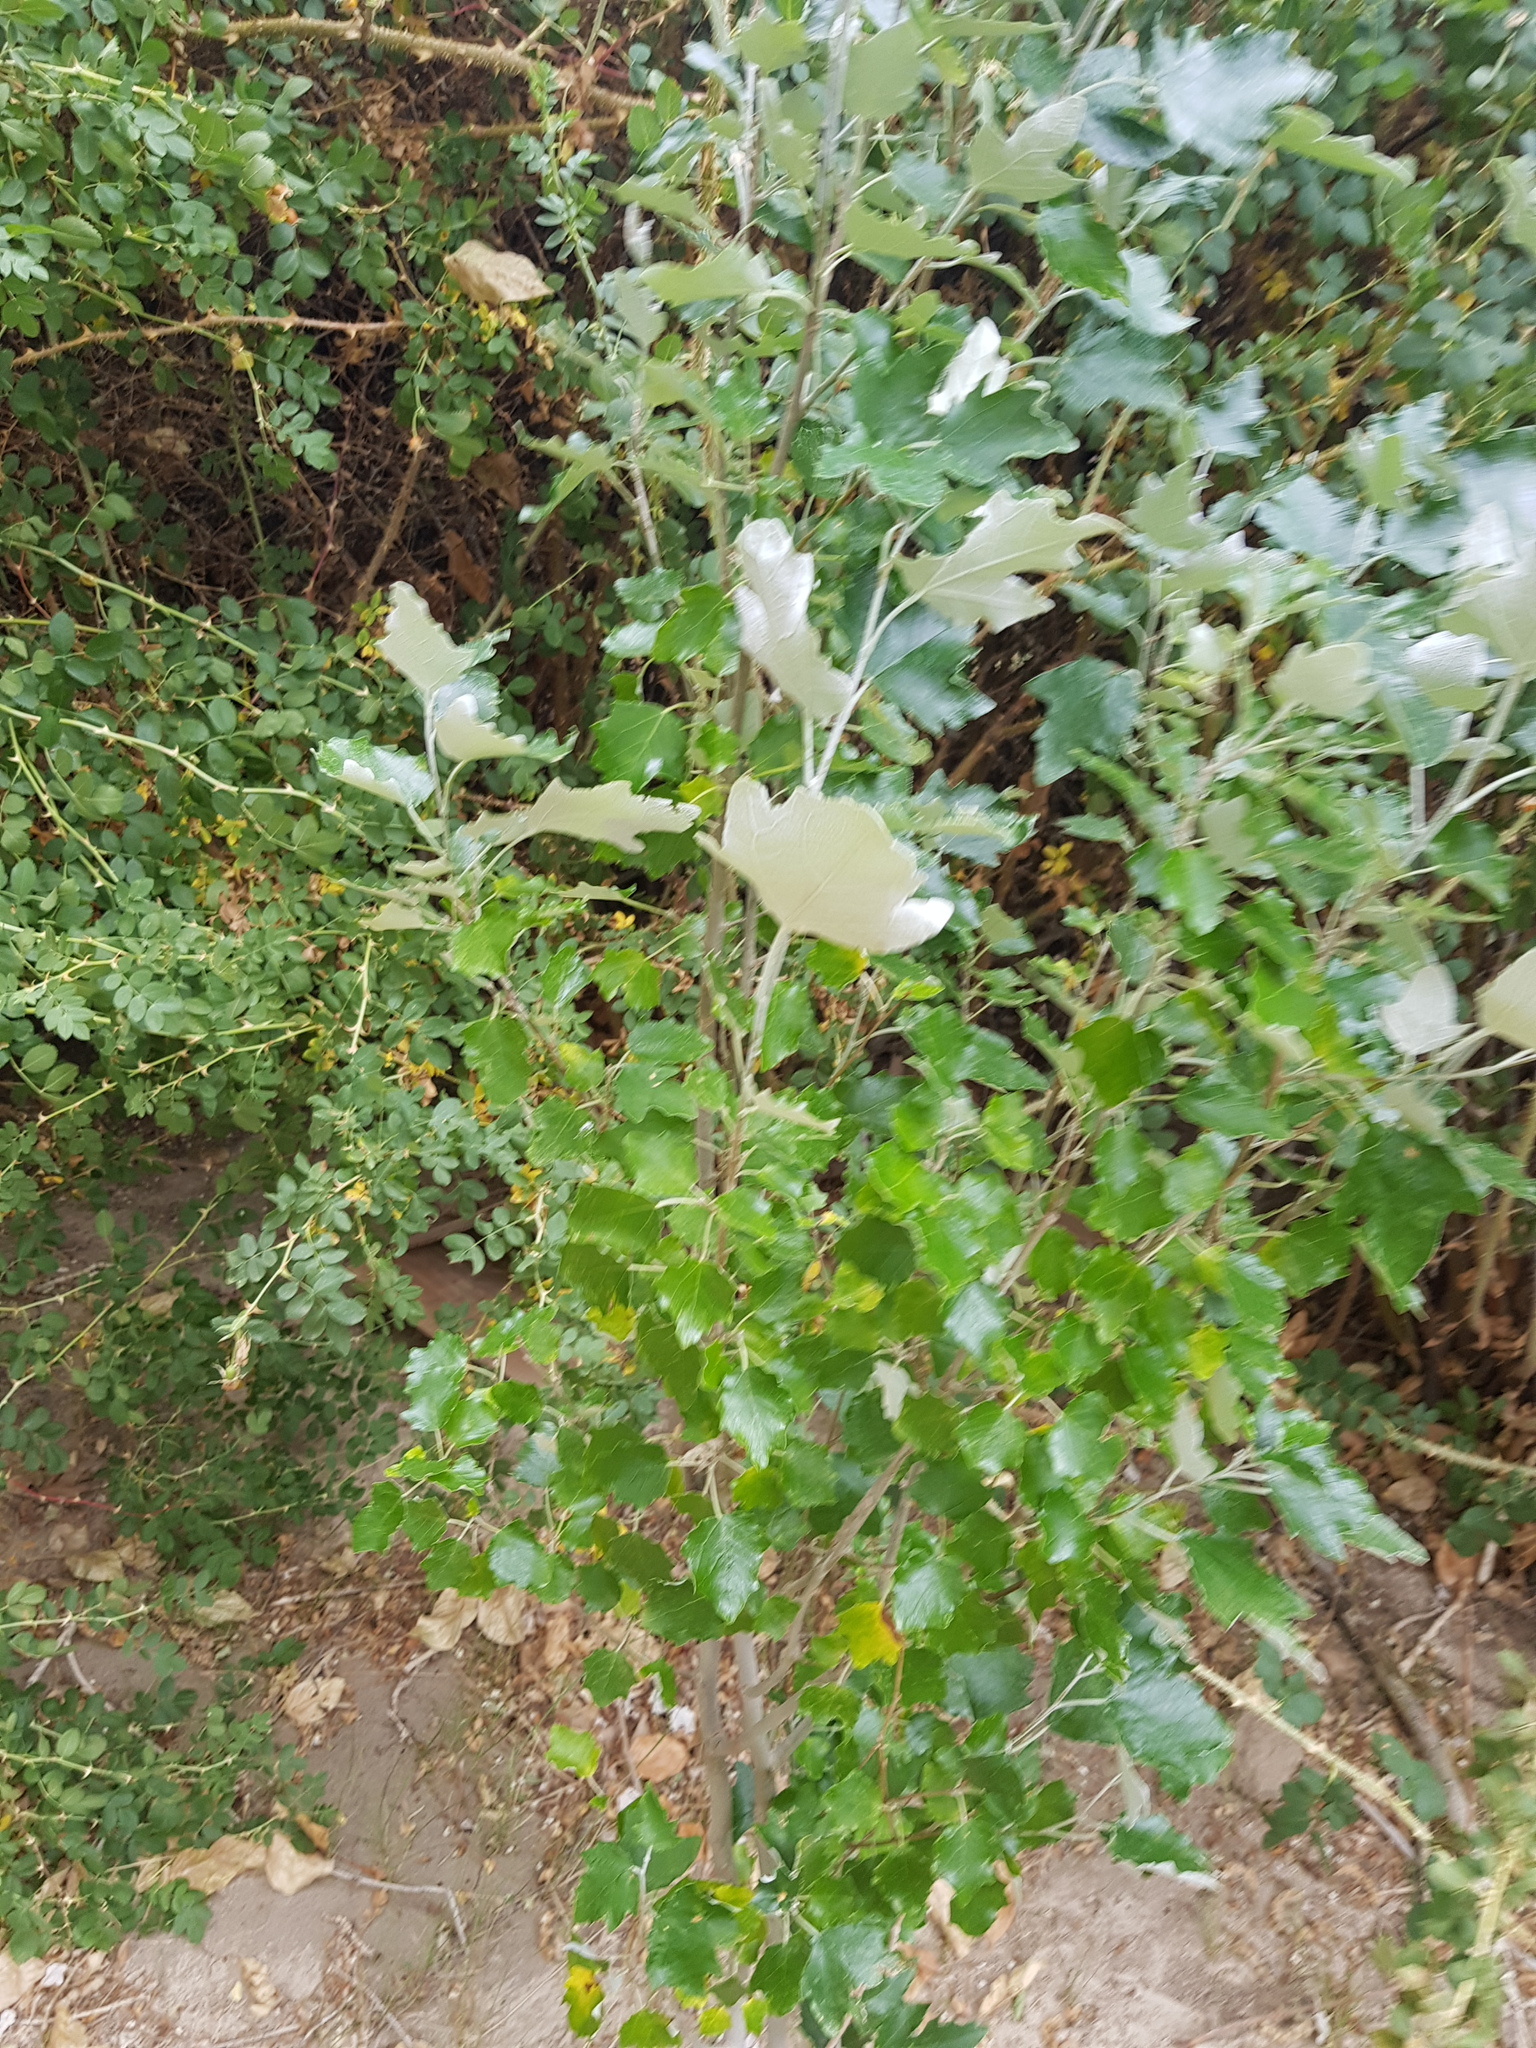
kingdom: Plantae
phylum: Tracheophyta
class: Magnoliopsida
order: Malpighiales
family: Salicaceae
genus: Populus
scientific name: Populus alba
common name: White poplar
